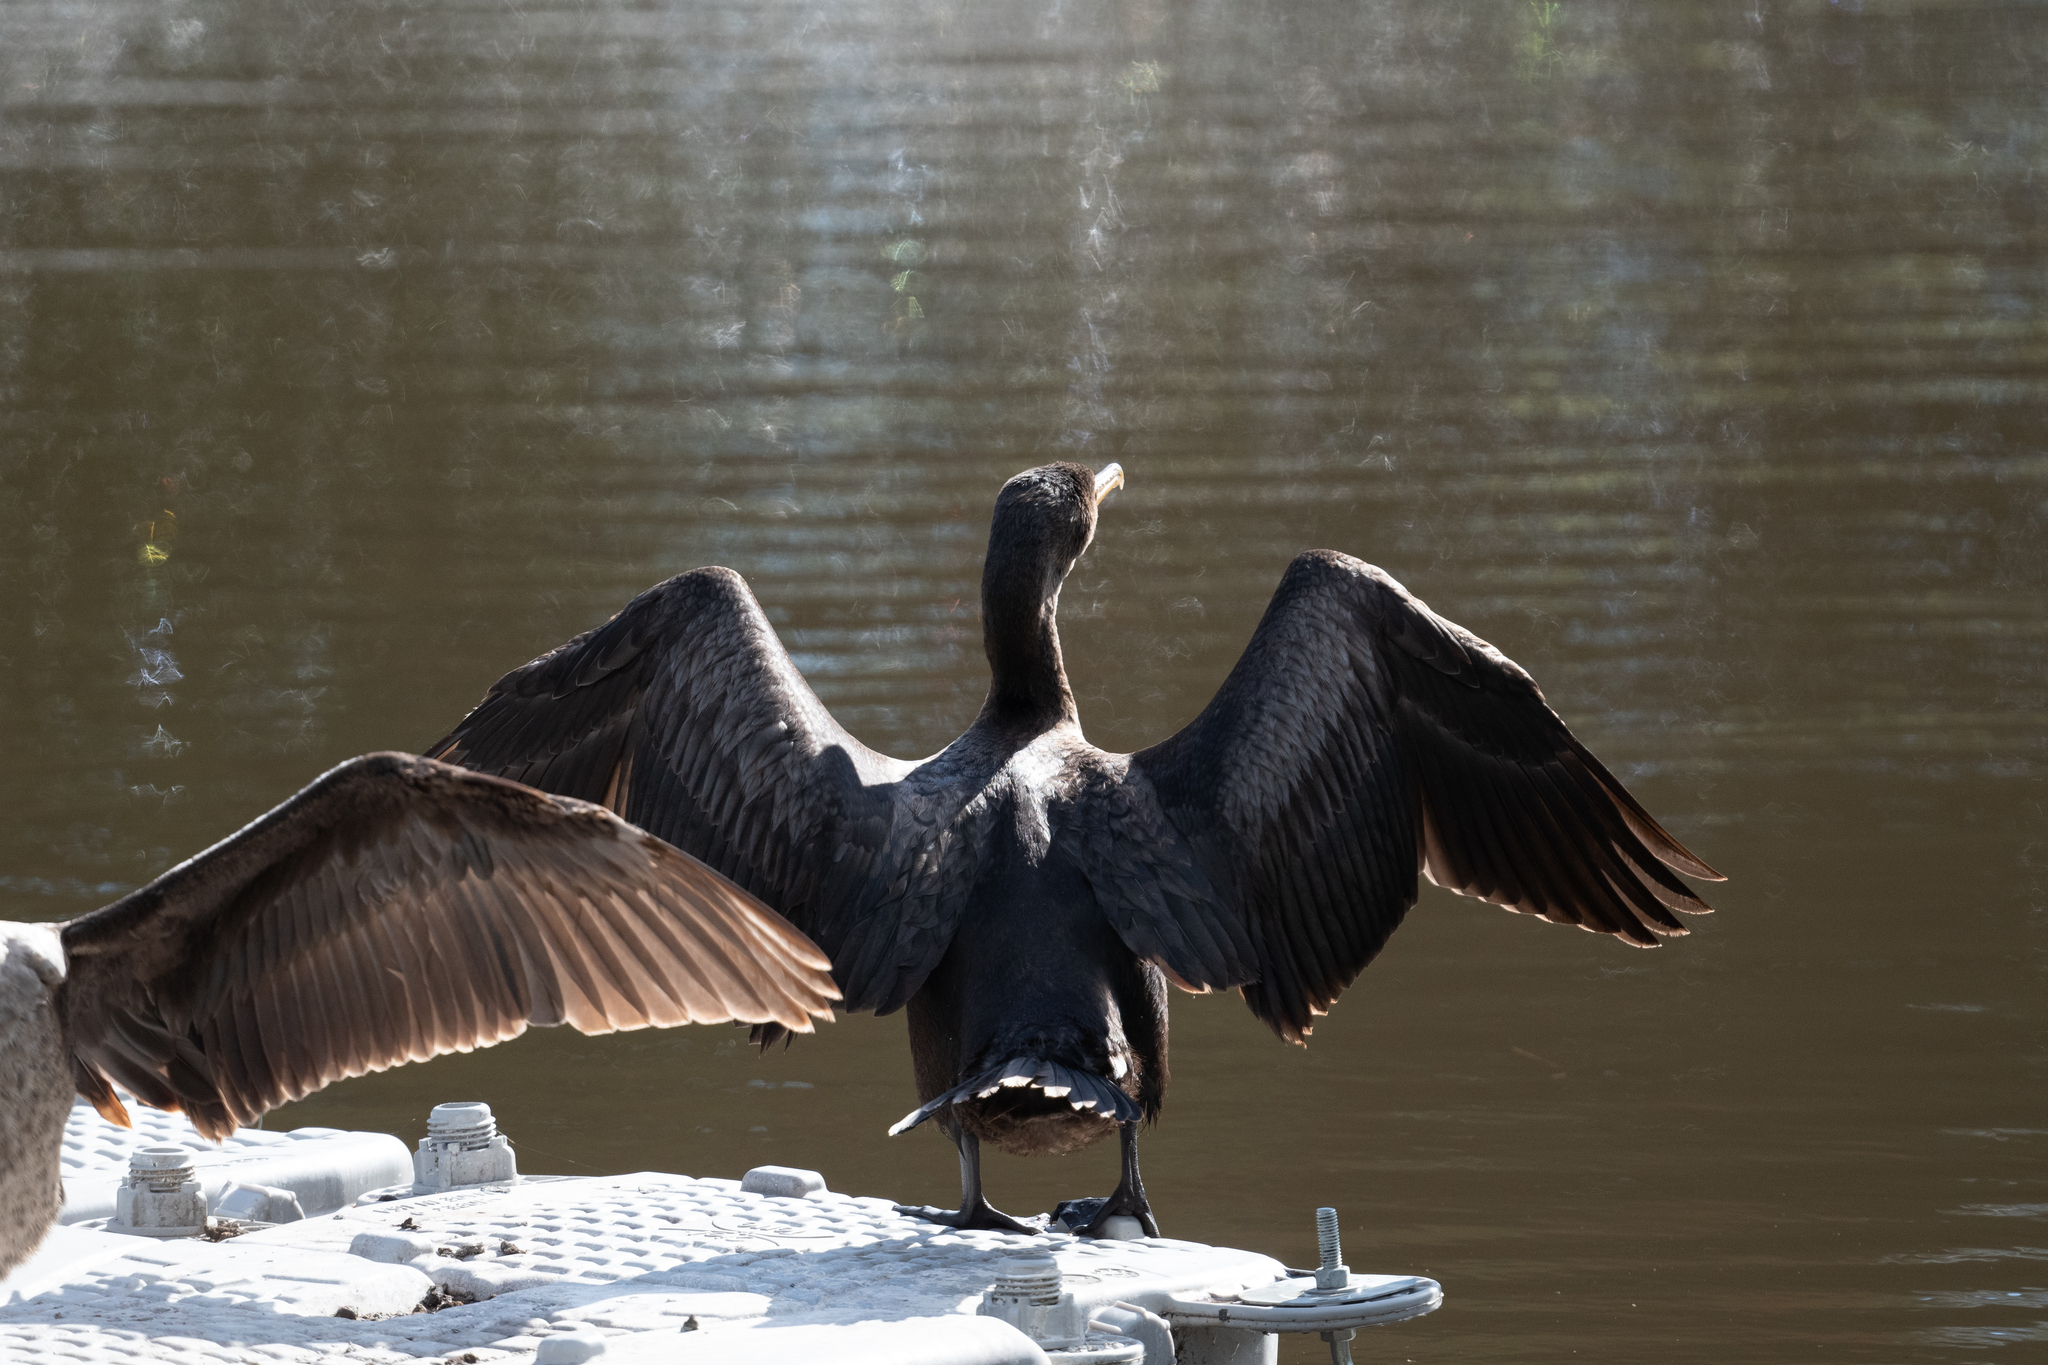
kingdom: Animalia
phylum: Chordata
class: Aves
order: Suliformes
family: Phalacrocoracidae
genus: Phalacrocorax
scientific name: Phalacrocorax auritus
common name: Double-crested cormorant
